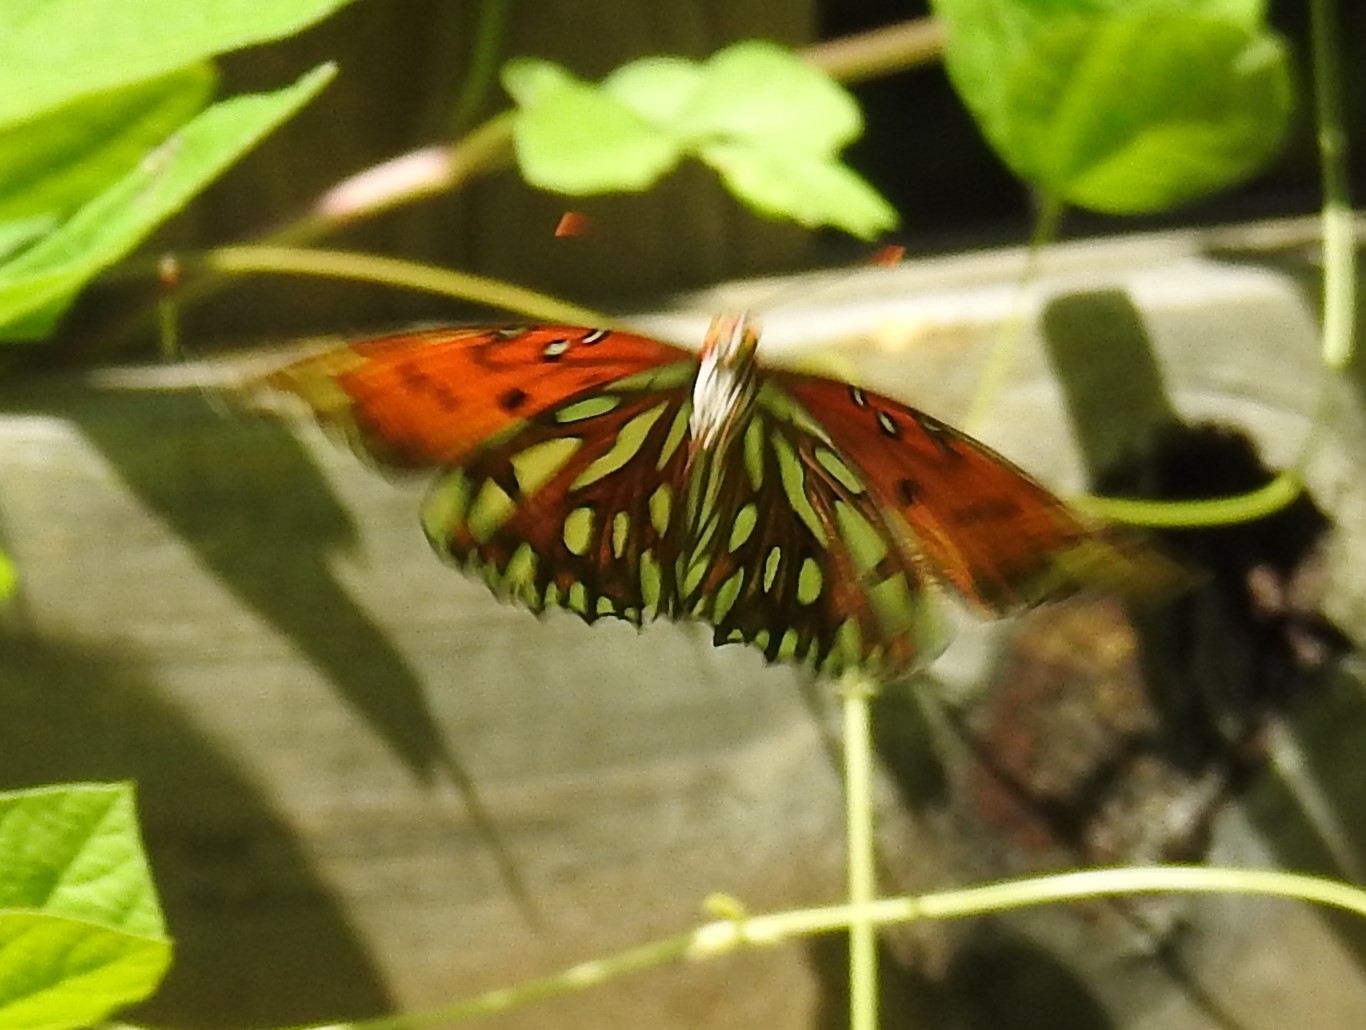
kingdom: Animalia
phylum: Arthropoda
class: Insecta
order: Lepidoptera
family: Nymphalidae
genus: Dione
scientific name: Dione vanillae
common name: Gulf fritillary
